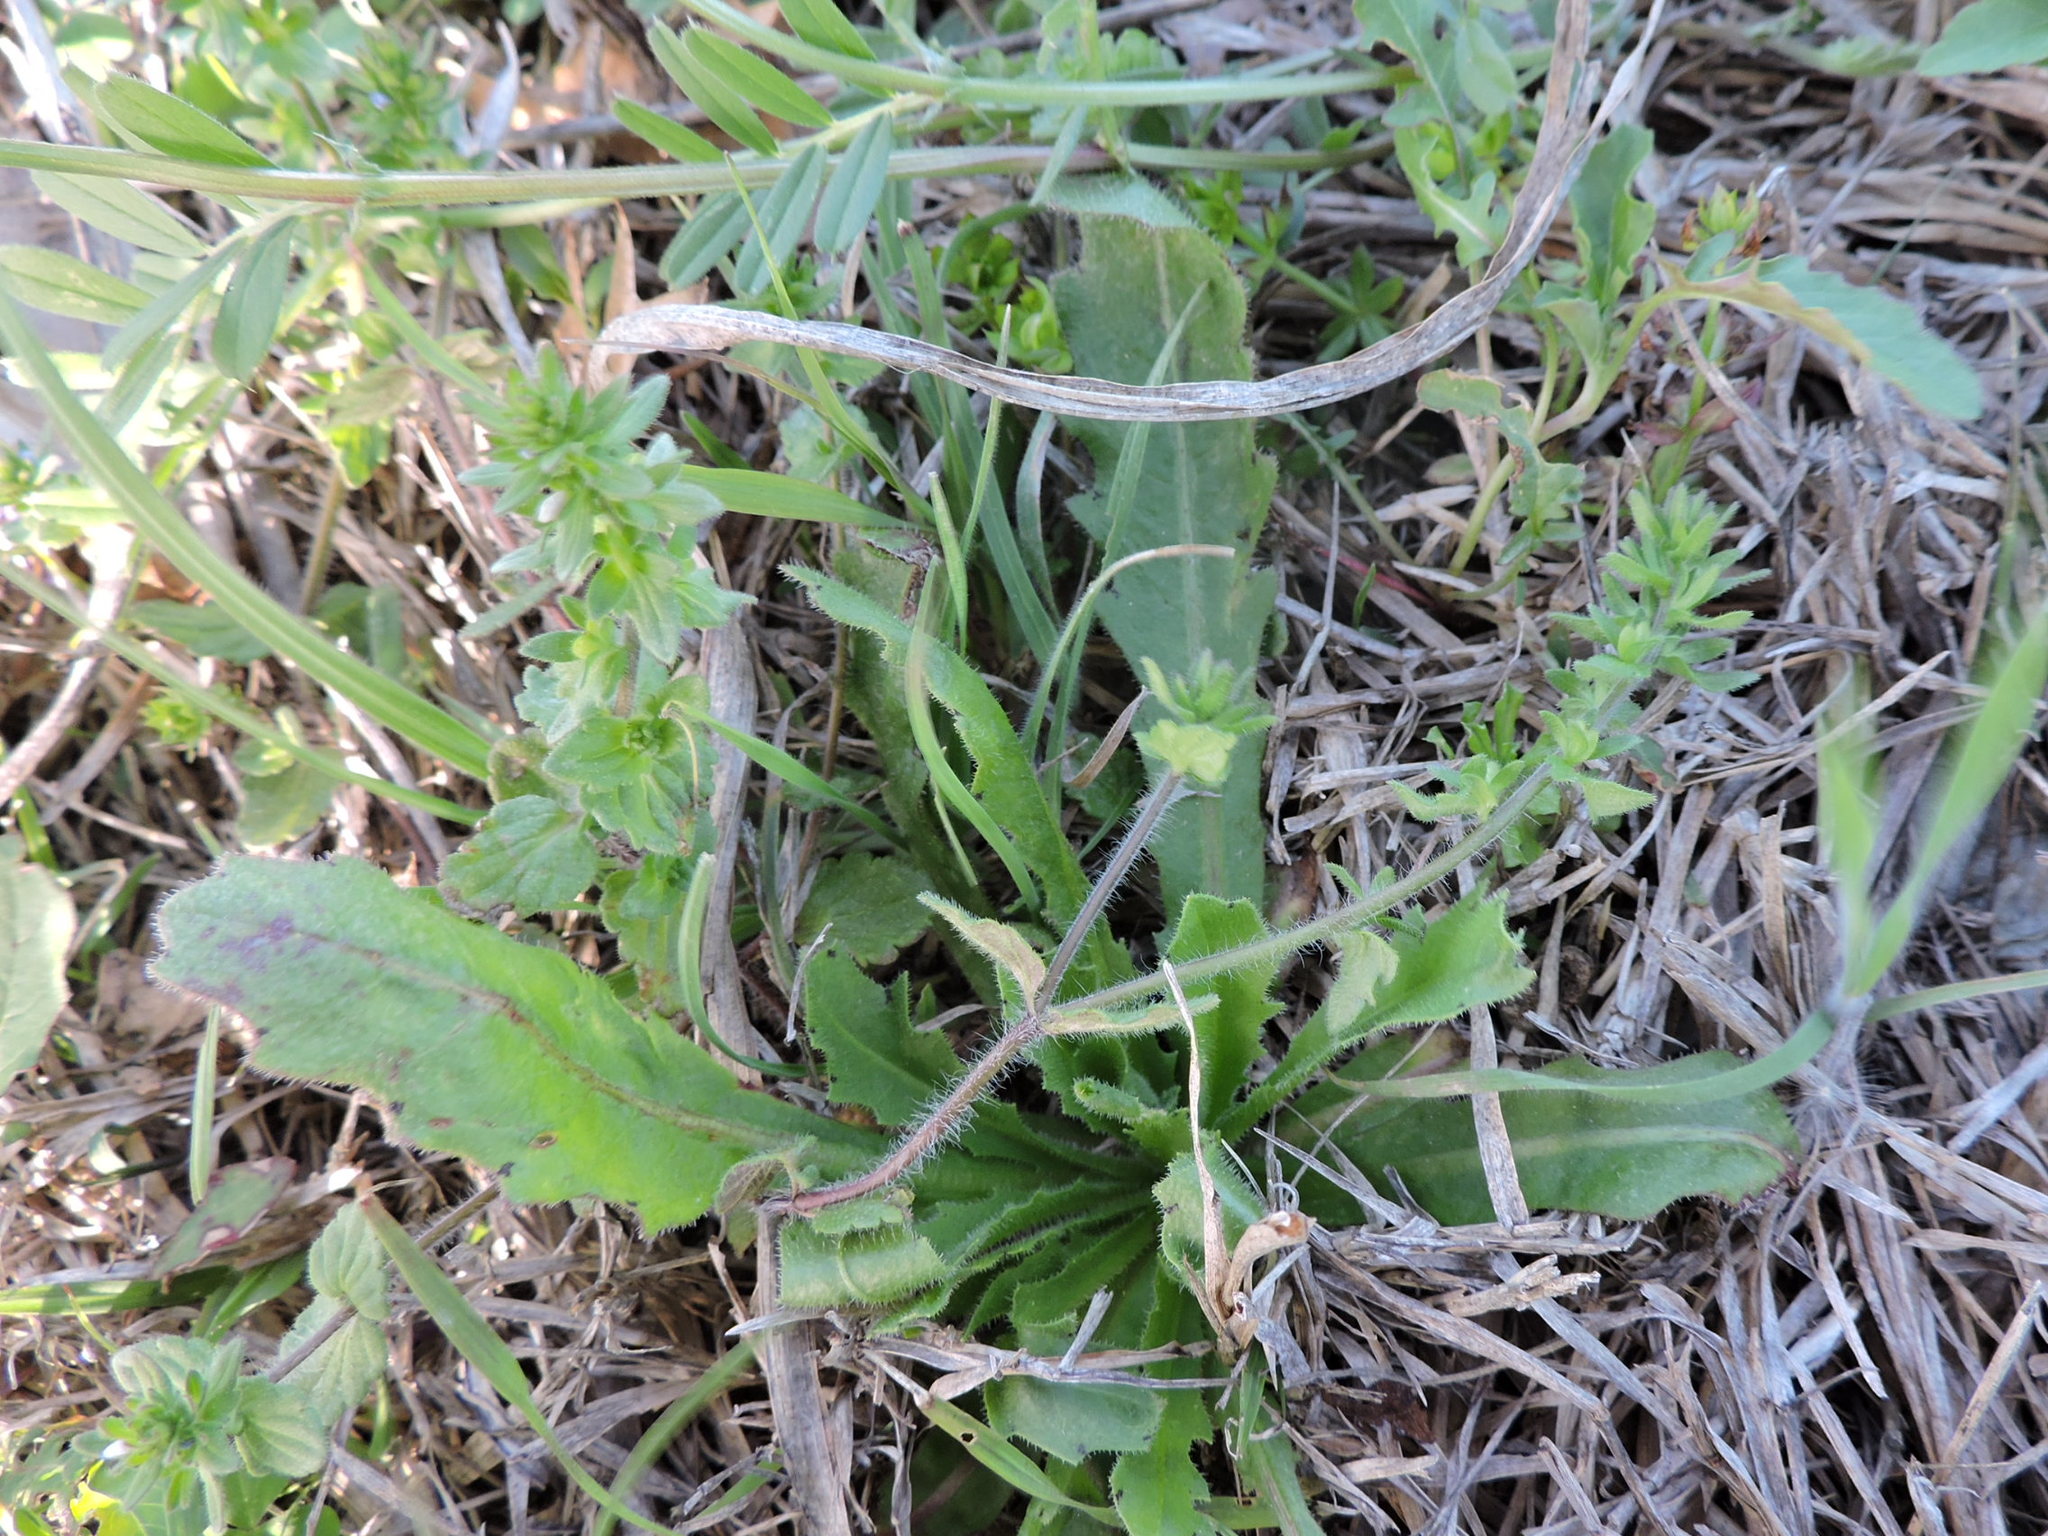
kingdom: Plantae
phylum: Tracheophyta
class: Magnoliopsida
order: Lamiales
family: Plantaginaceae
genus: Veronica
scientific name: Veronica arvensis
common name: Corn speedwell
